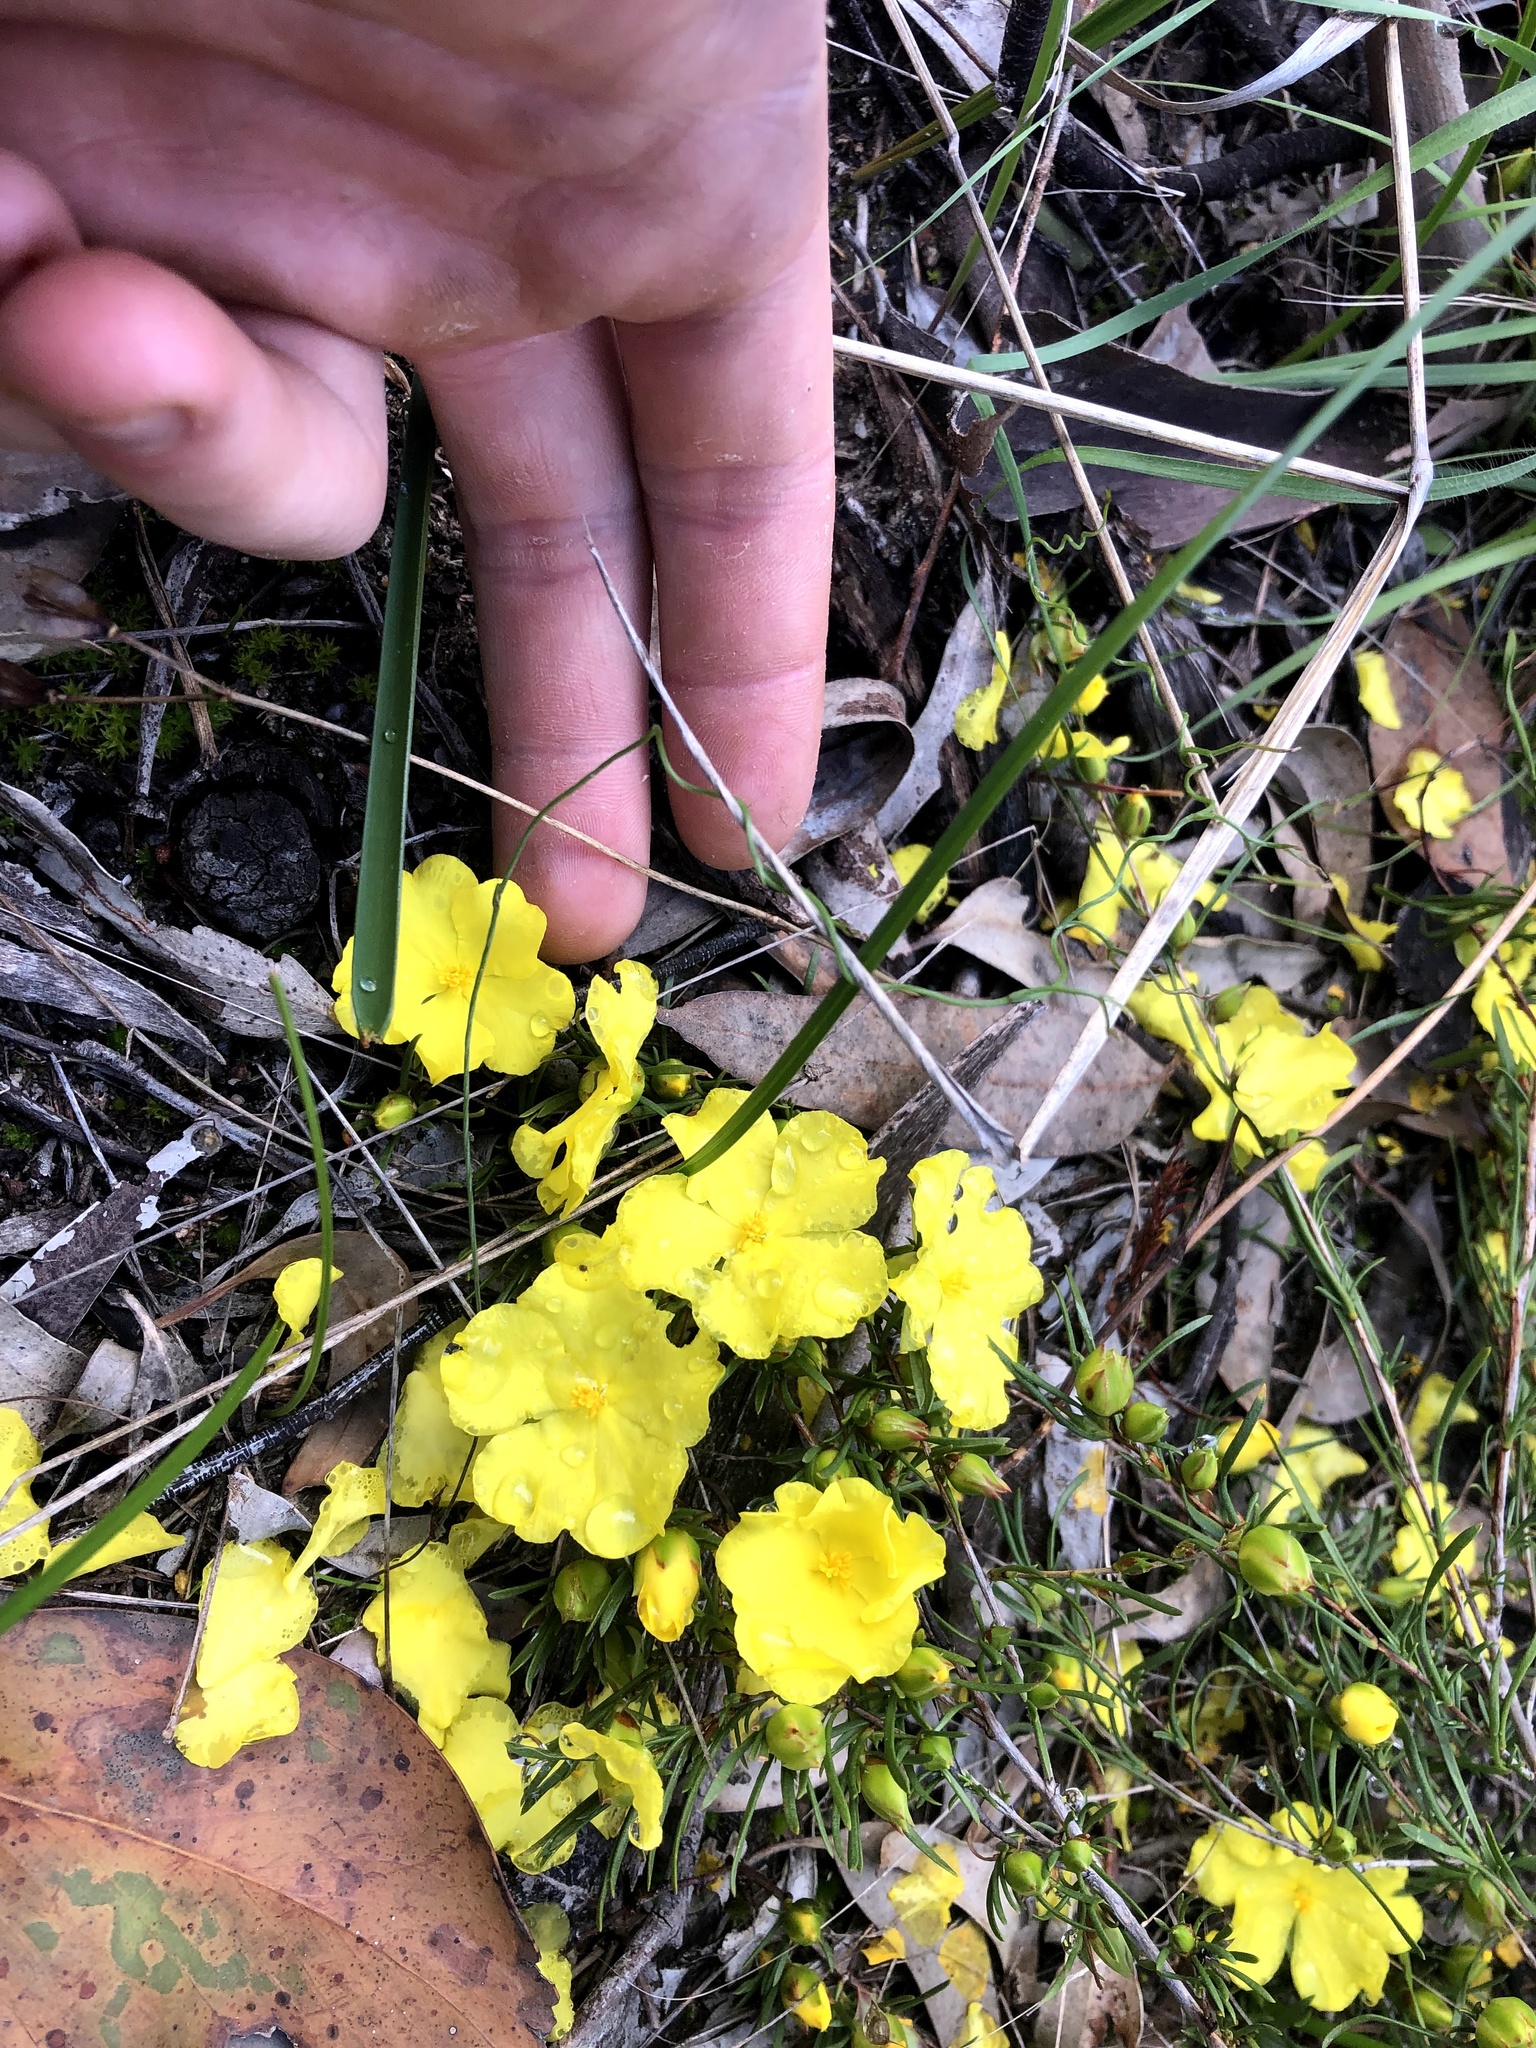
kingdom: Plantae
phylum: Tracheophyta
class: Magnoliopsida
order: Dilleniales
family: Dilleniaceae
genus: Hibbertia
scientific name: Hibbertia virgata
